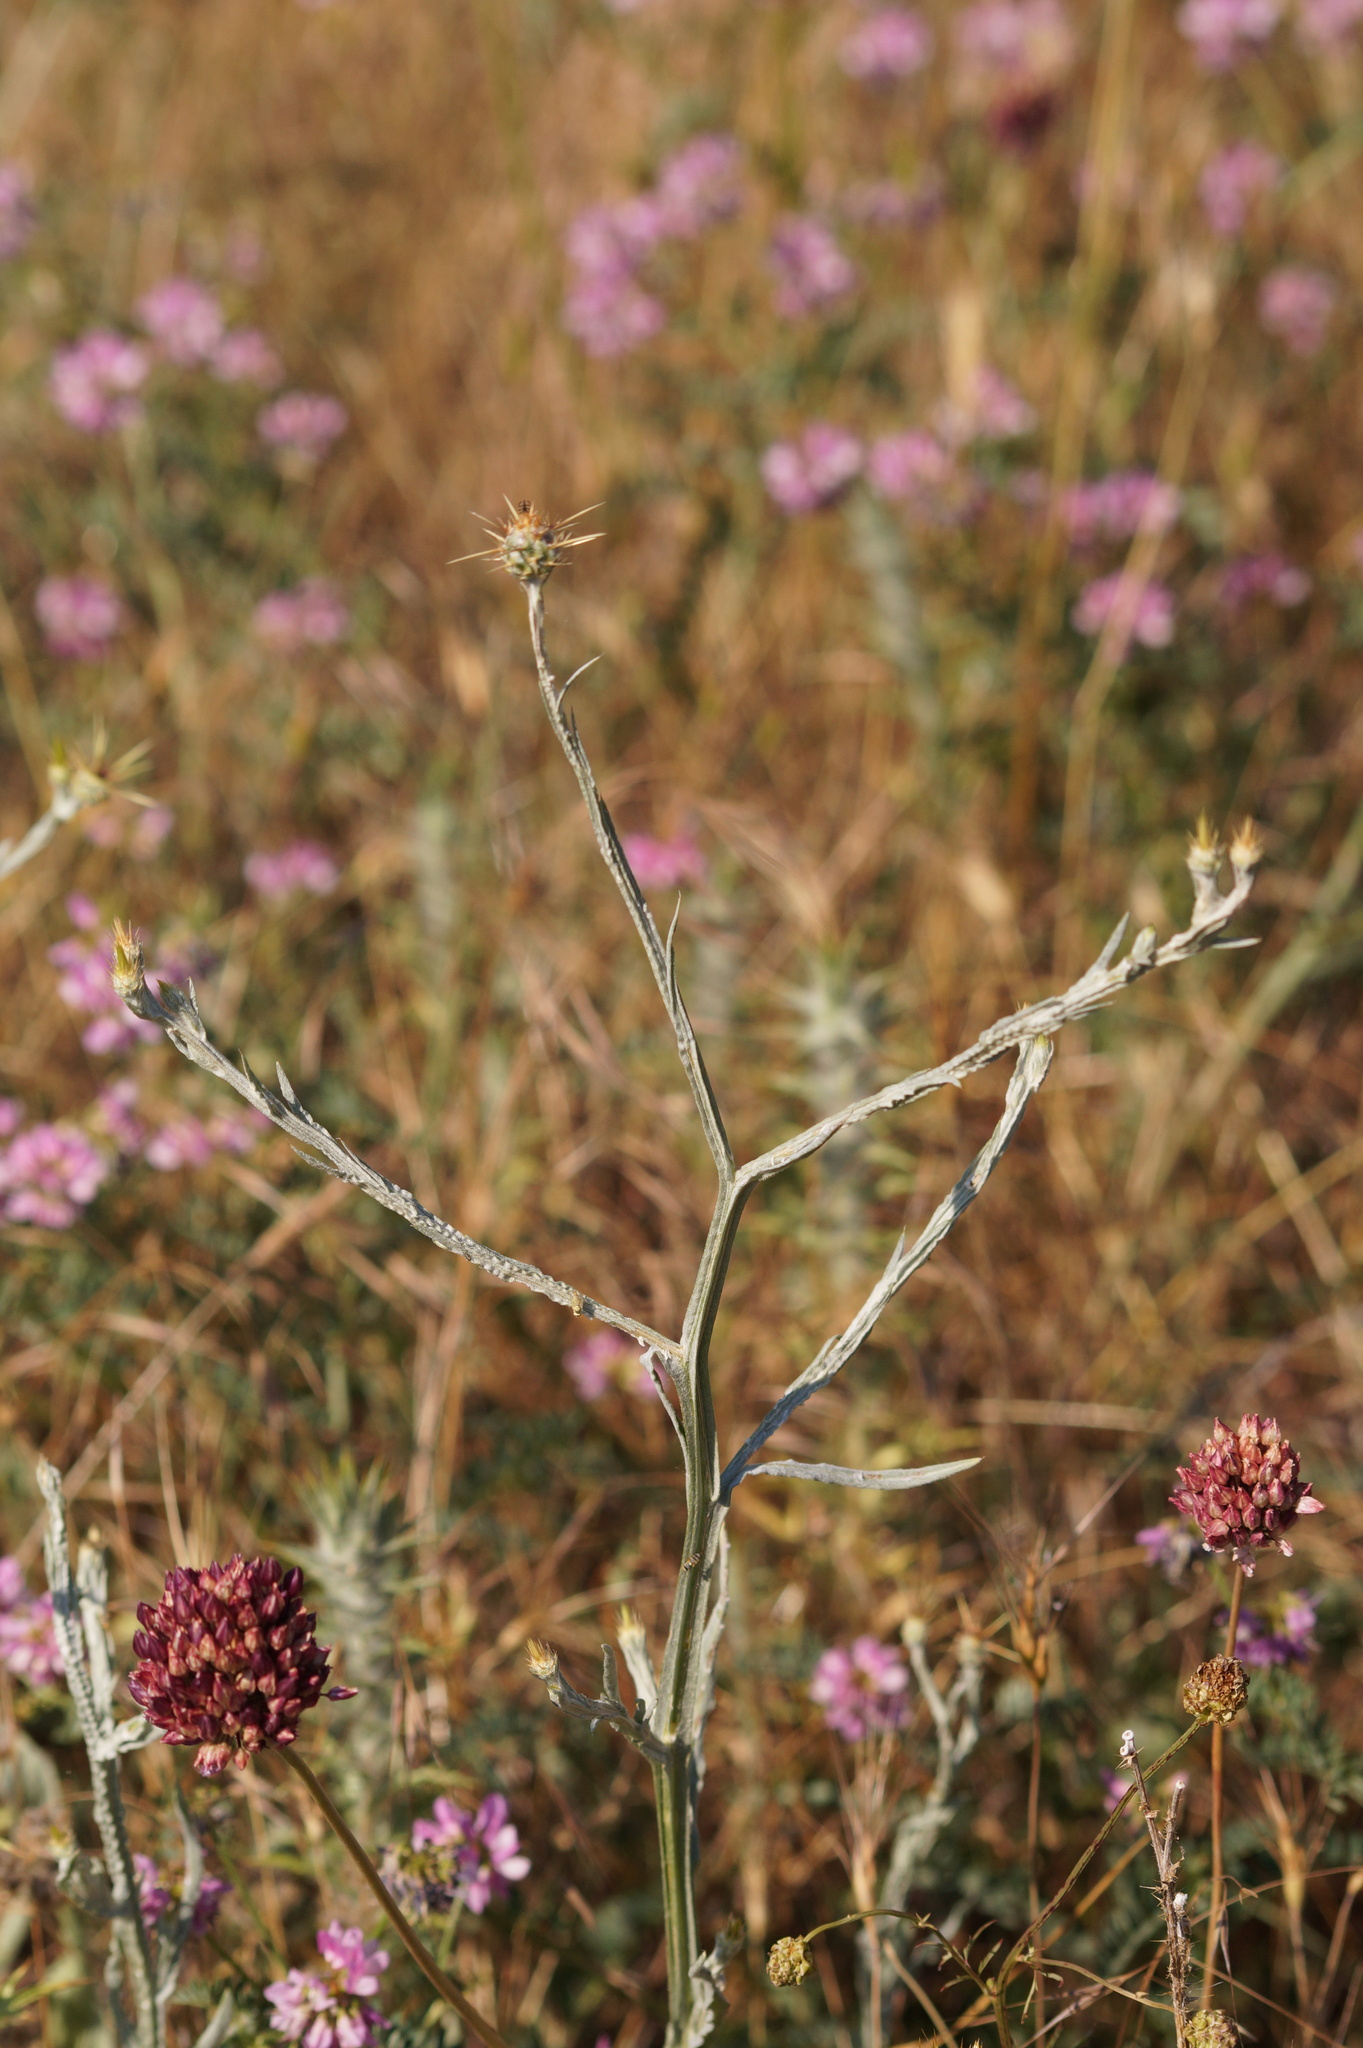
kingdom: Plantae
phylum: Tracheophyta
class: Magnoliopsida
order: Asterales
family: Asteraceae
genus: Centaurea
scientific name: Centaurea solstitialis
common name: Yellow star-thistle
